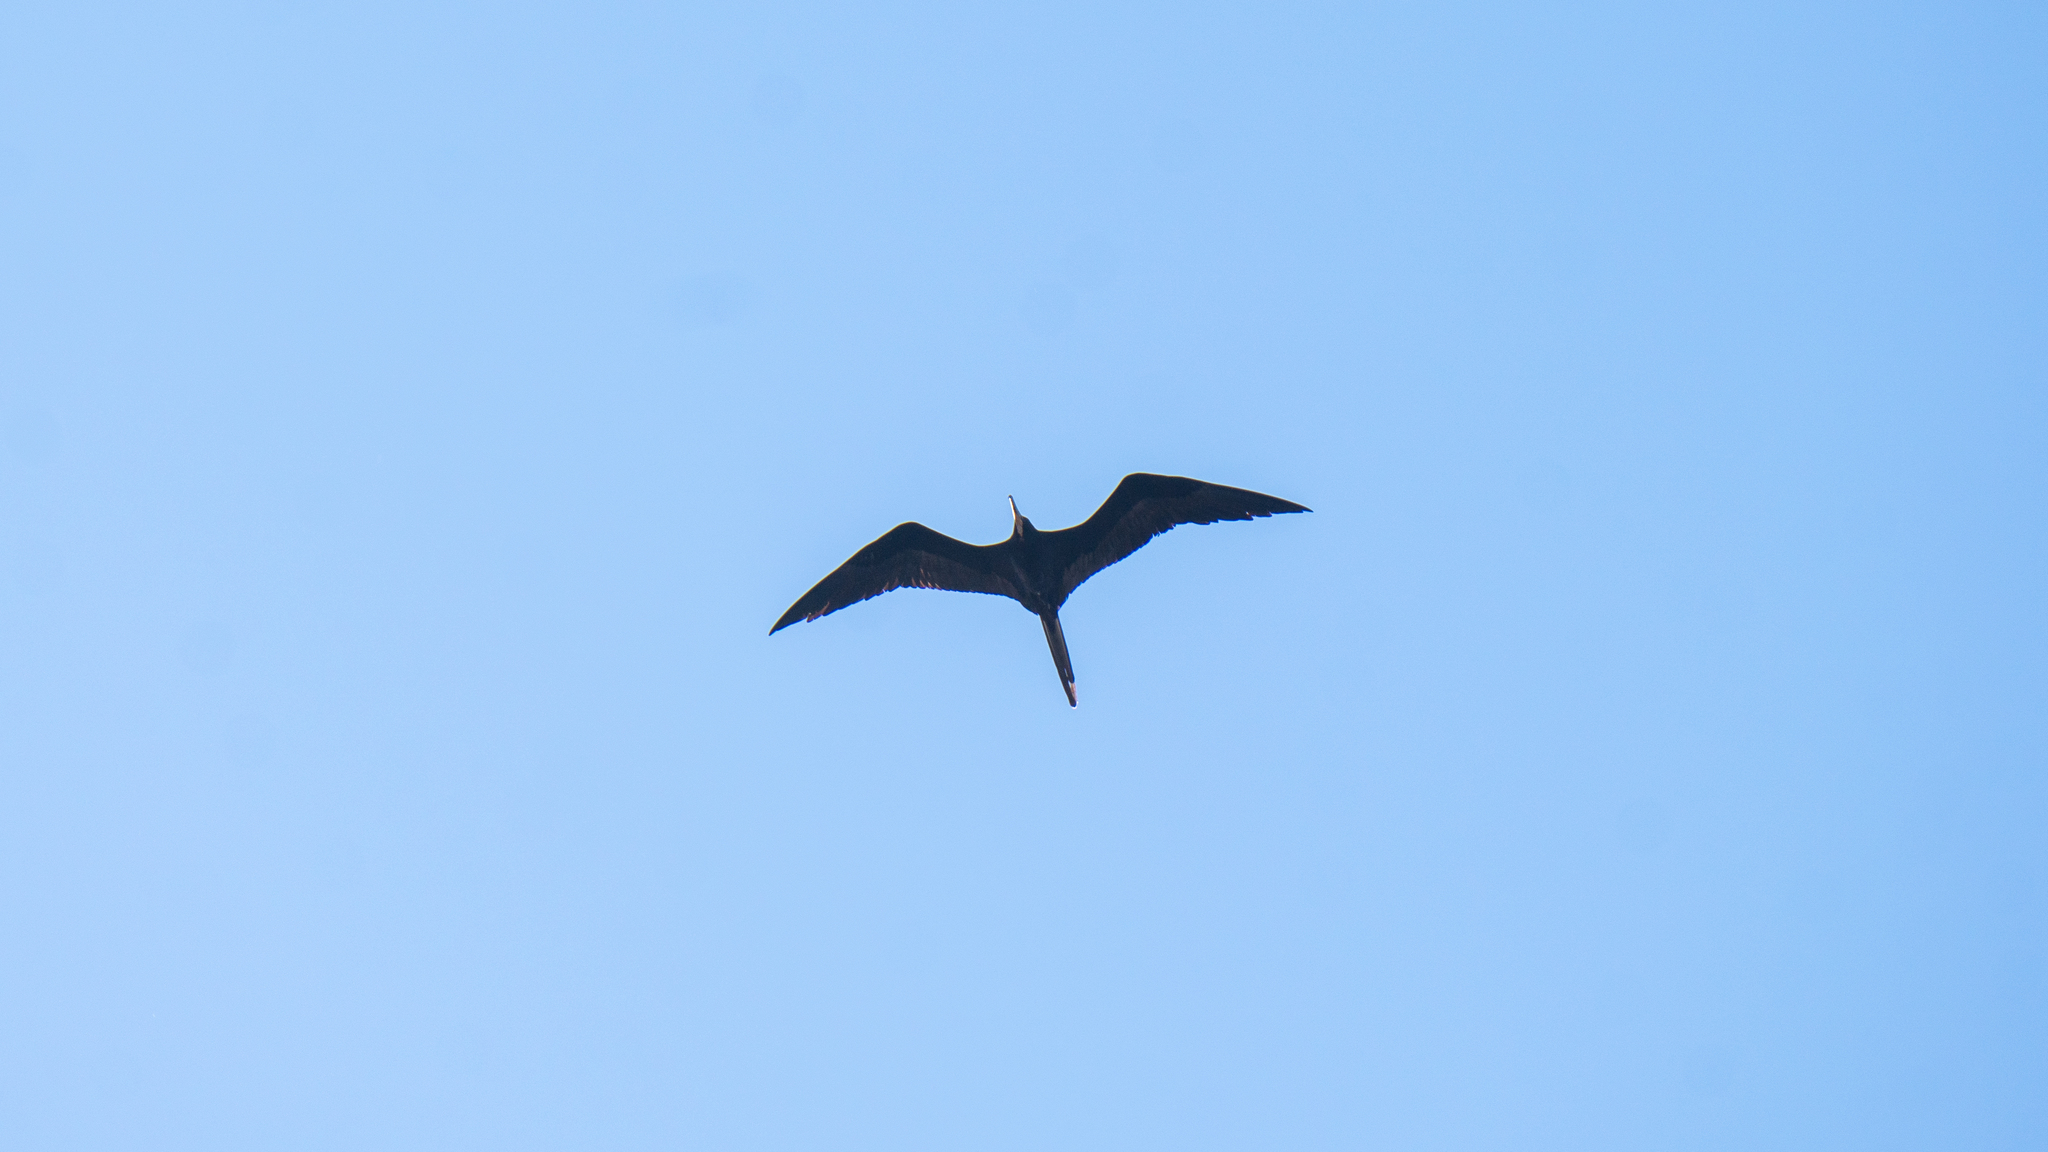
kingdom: Animalia
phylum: Chordata
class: Aves
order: Suliformes
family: Fregatidae
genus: Fregata
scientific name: Fregata magnificens
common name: Magnificent frigatebird
